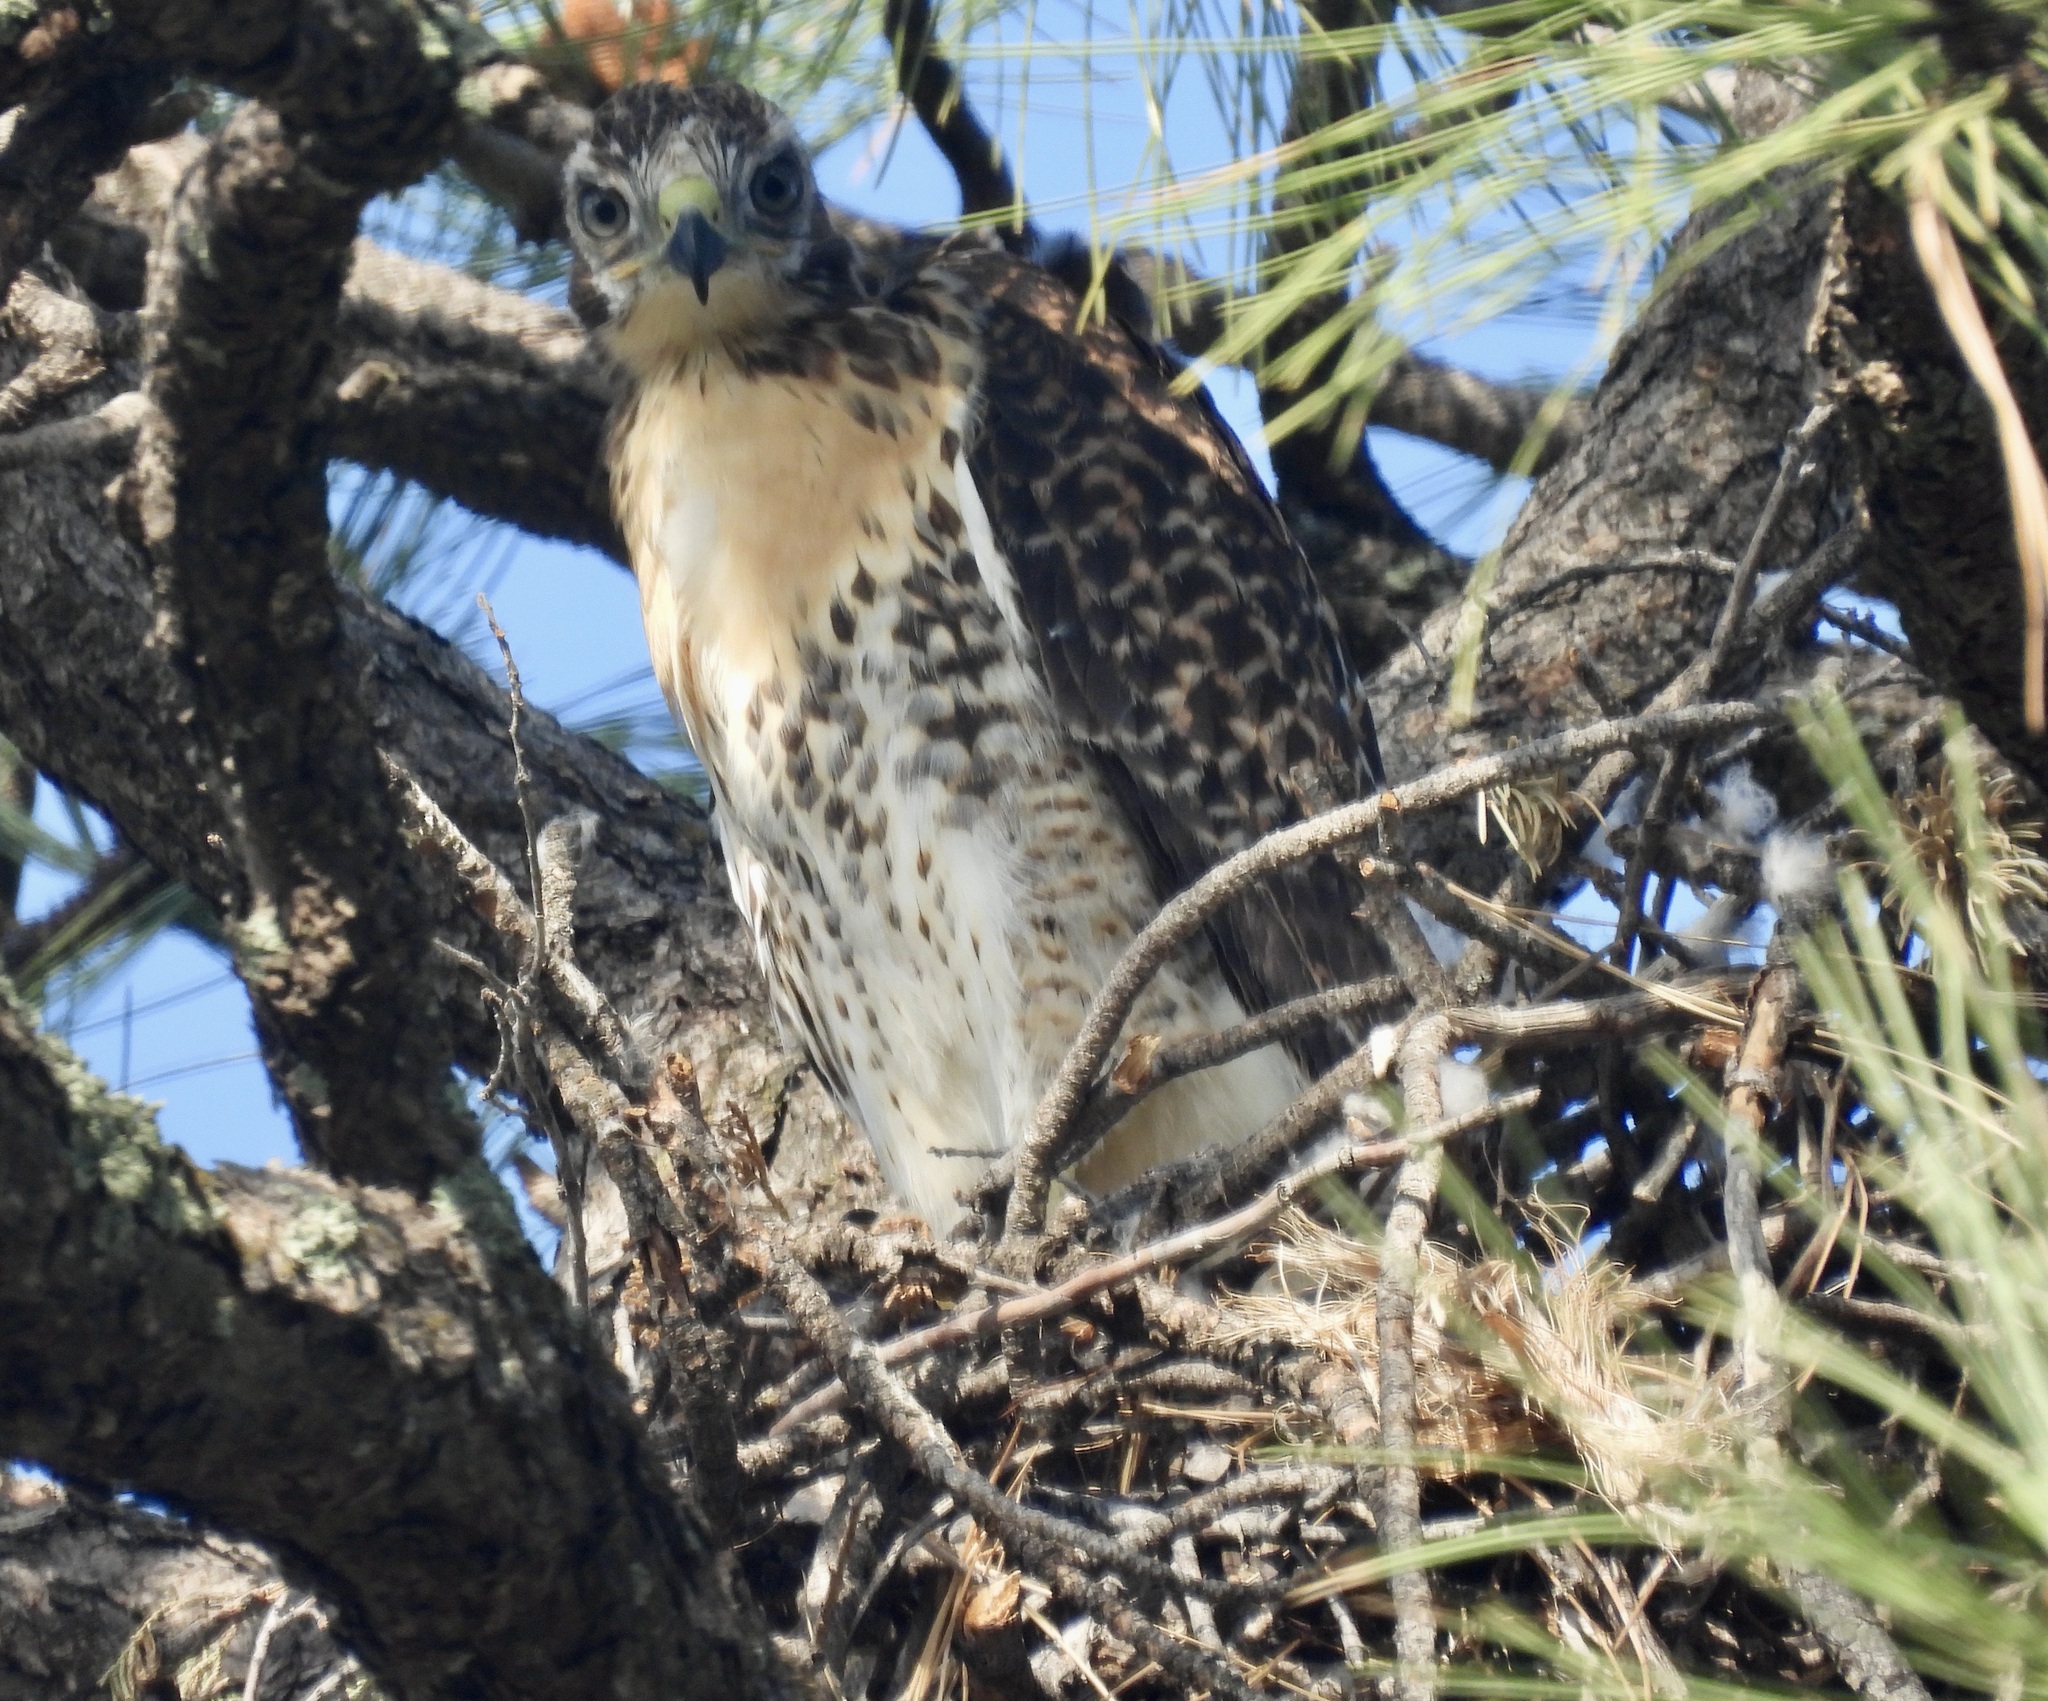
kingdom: Animalia
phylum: Chordata
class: Aves
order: Accipitriformes
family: Accipitridae
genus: Buteo
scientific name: Buteo jamaicensis
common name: Red-tailed hawk
